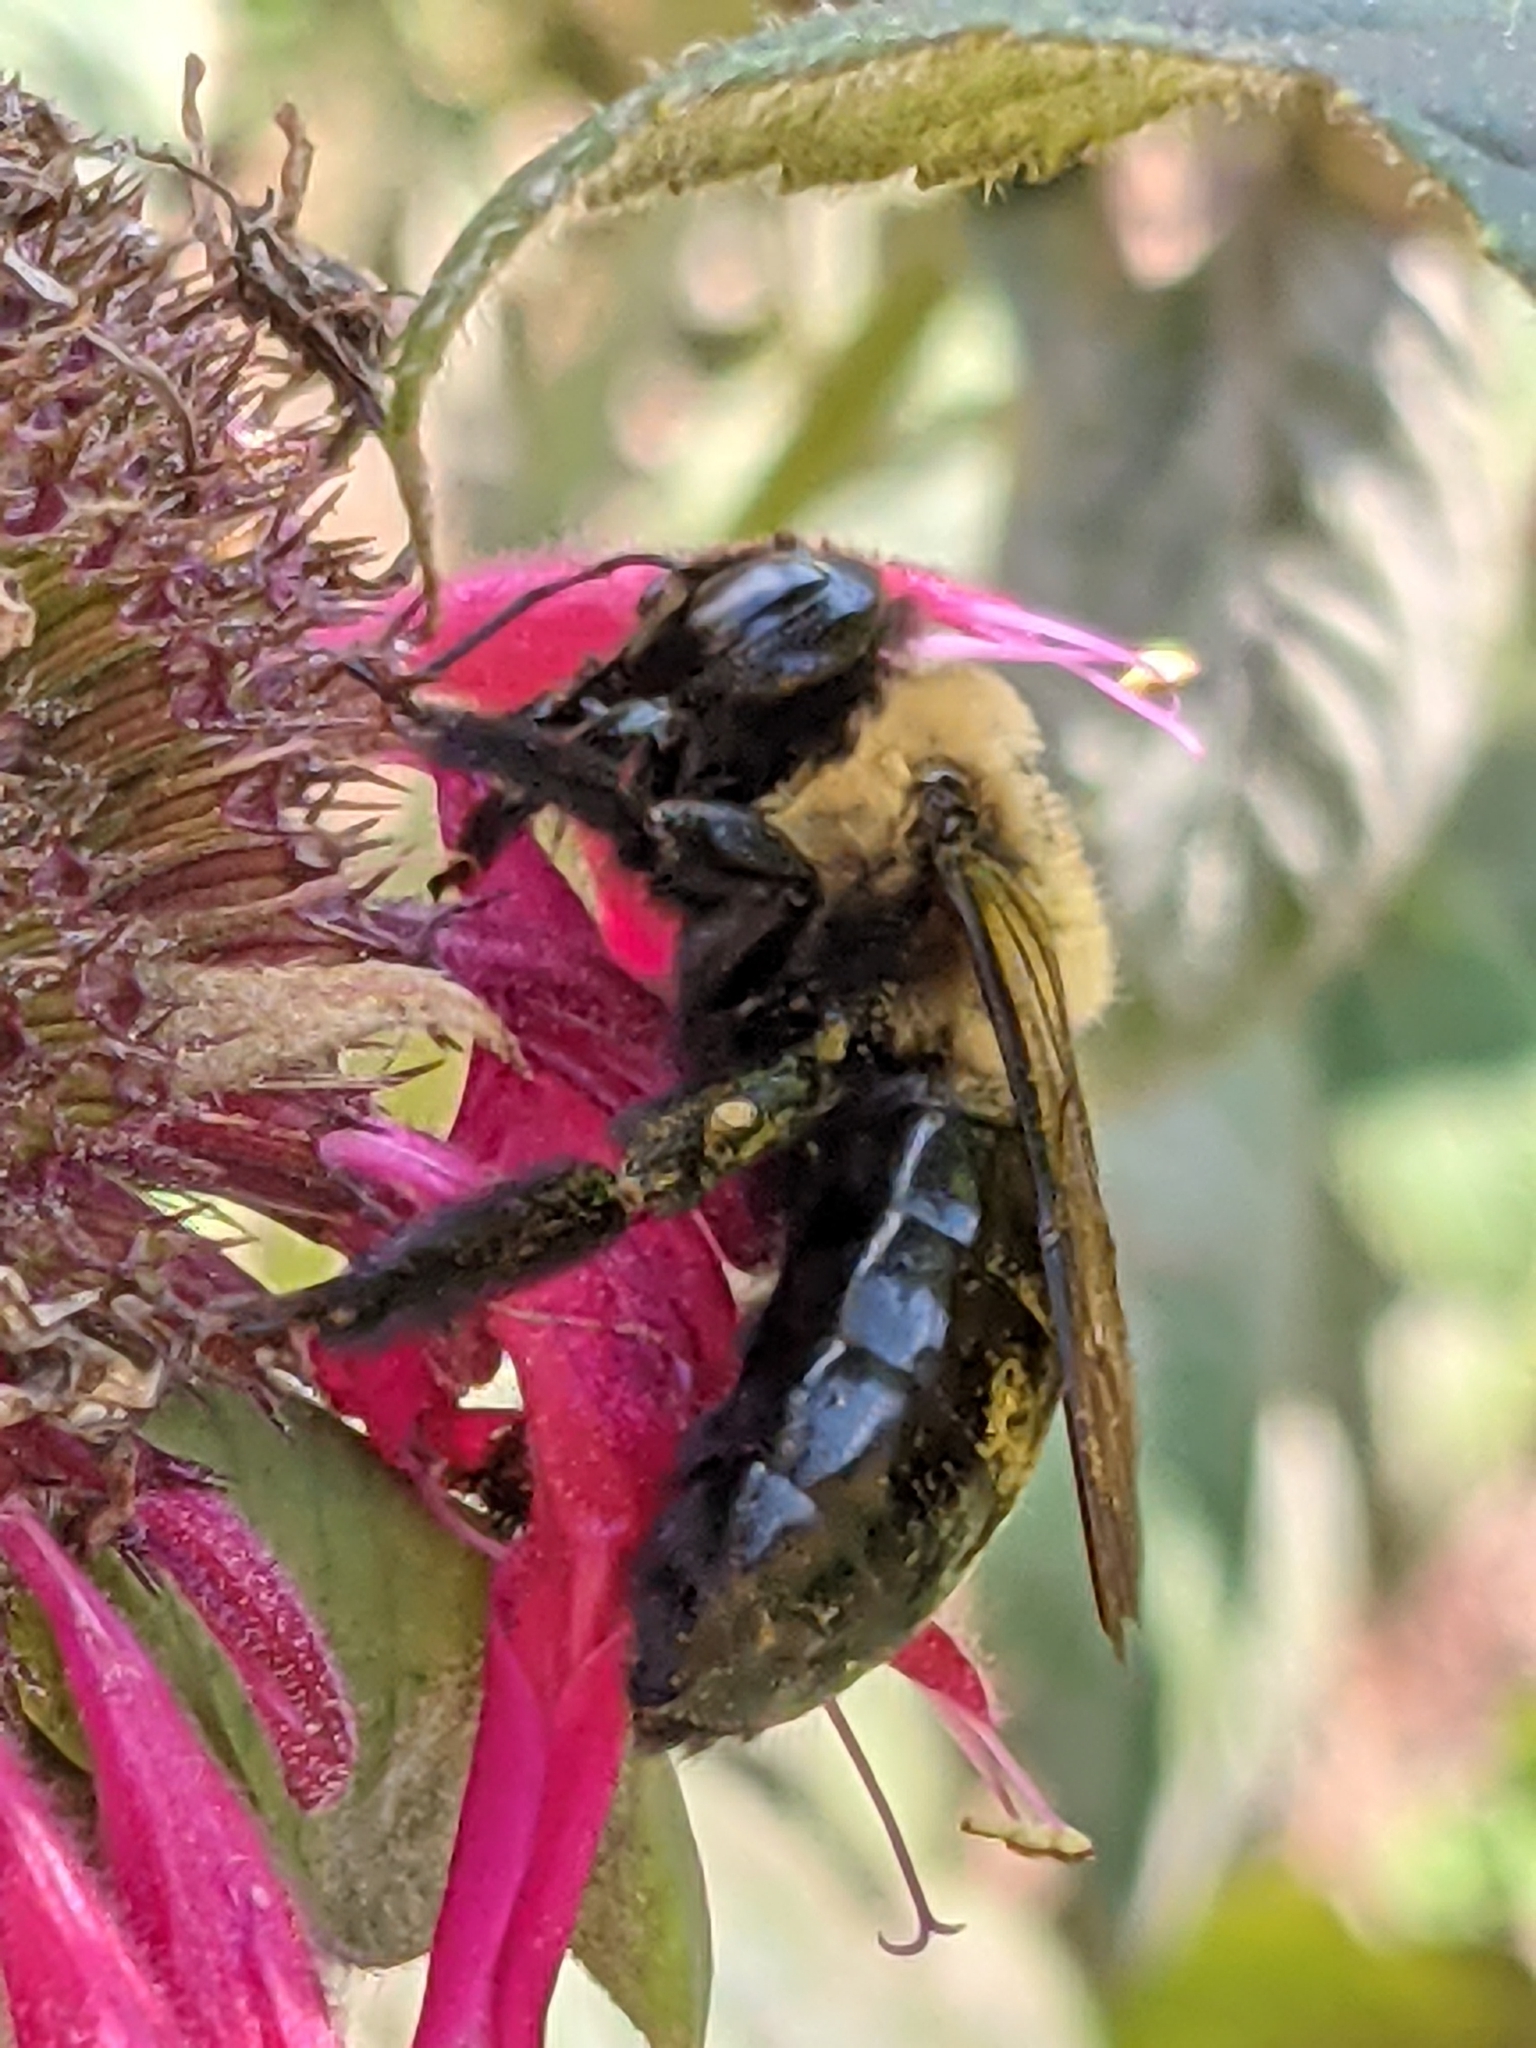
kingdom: Animalia
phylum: Arthropoda
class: Insecta
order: Hymenoptera
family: Apidae
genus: Xylocopa
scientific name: Xylocopa virginica
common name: Carpenter bee
